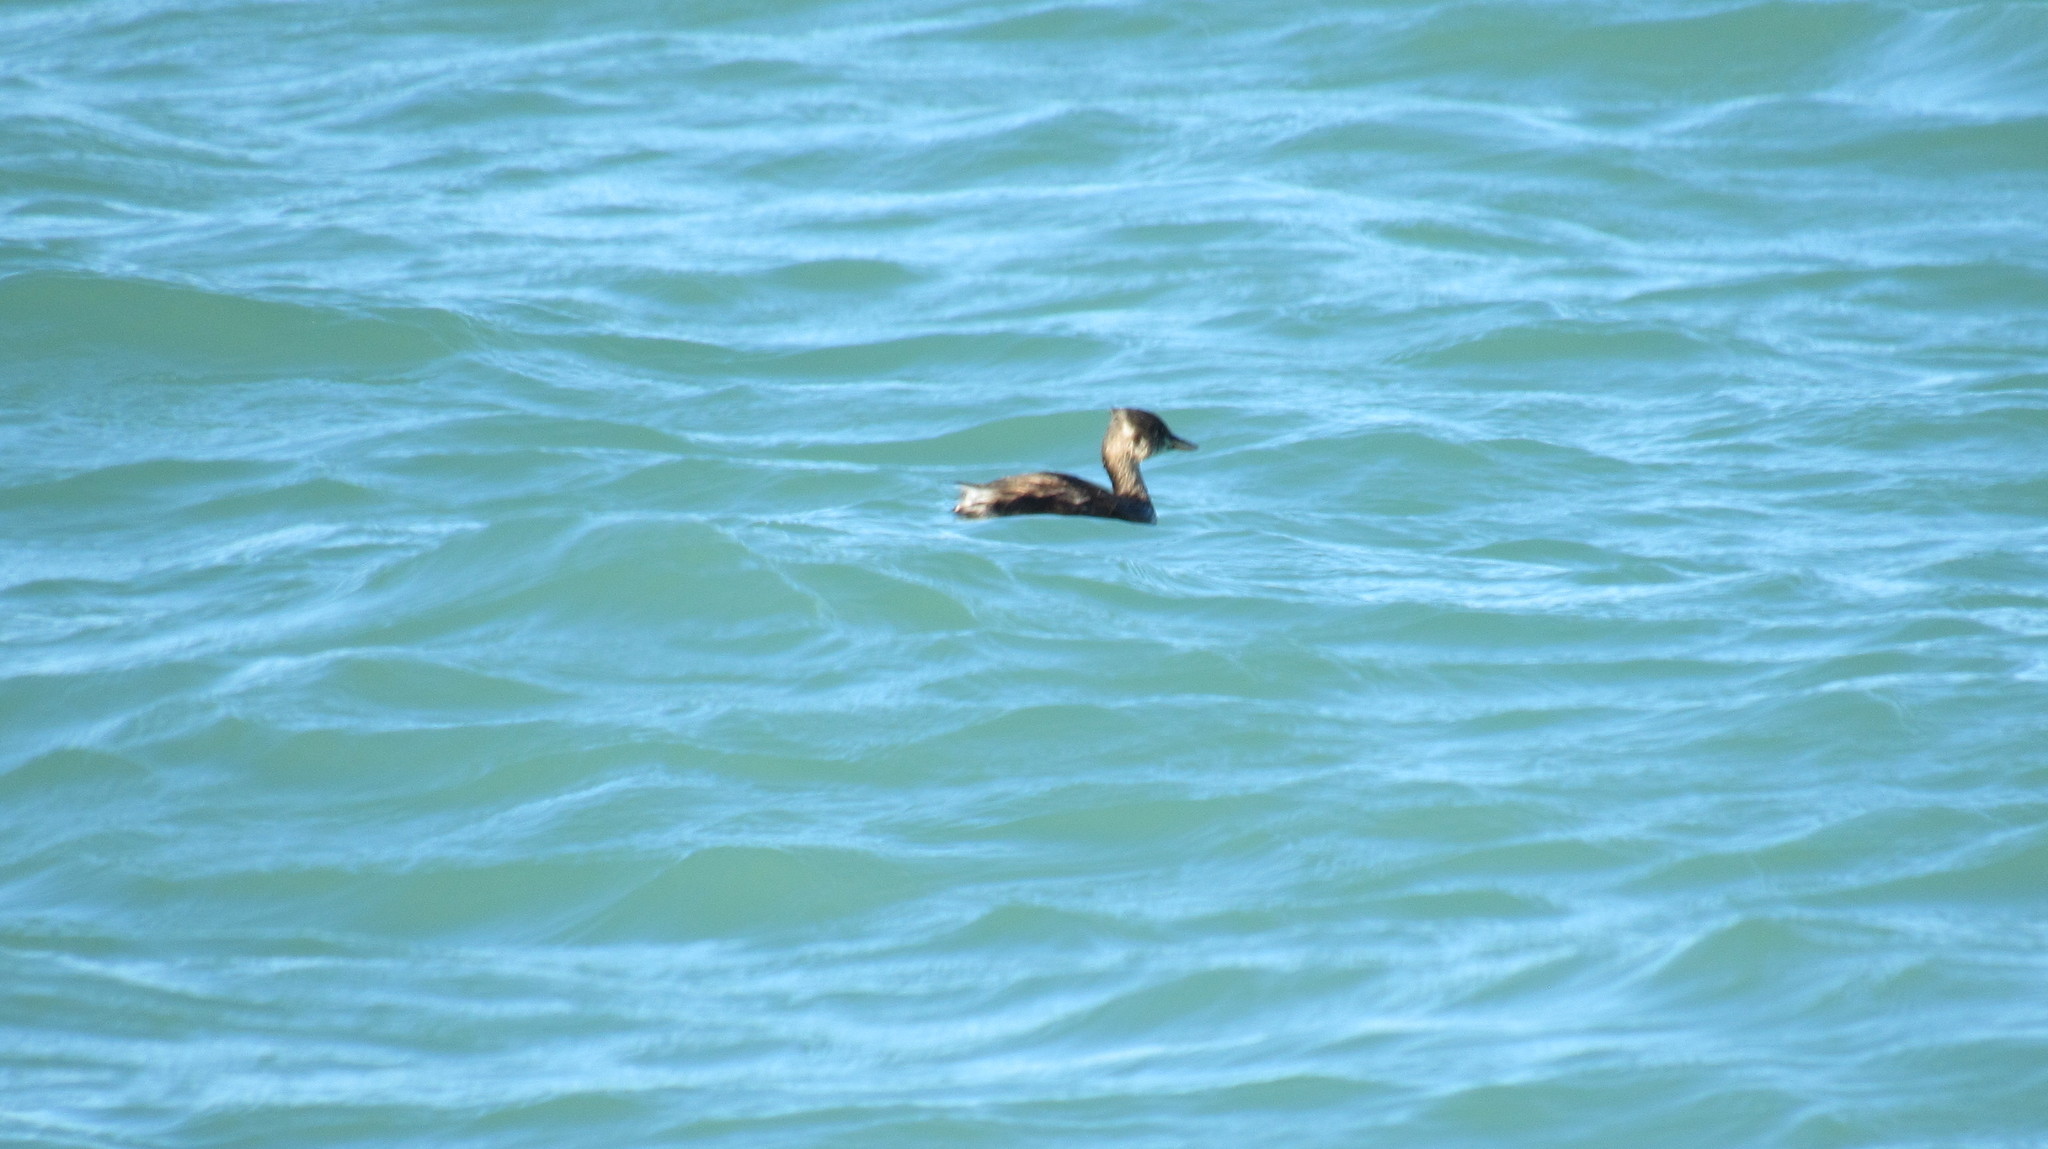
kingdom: Animalia
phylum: Chordata
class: Aves
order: Podicipediformes
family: Podicipedidae
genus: Podiceps
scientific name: Podiceps nigricollis
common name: Black-necked grebe
